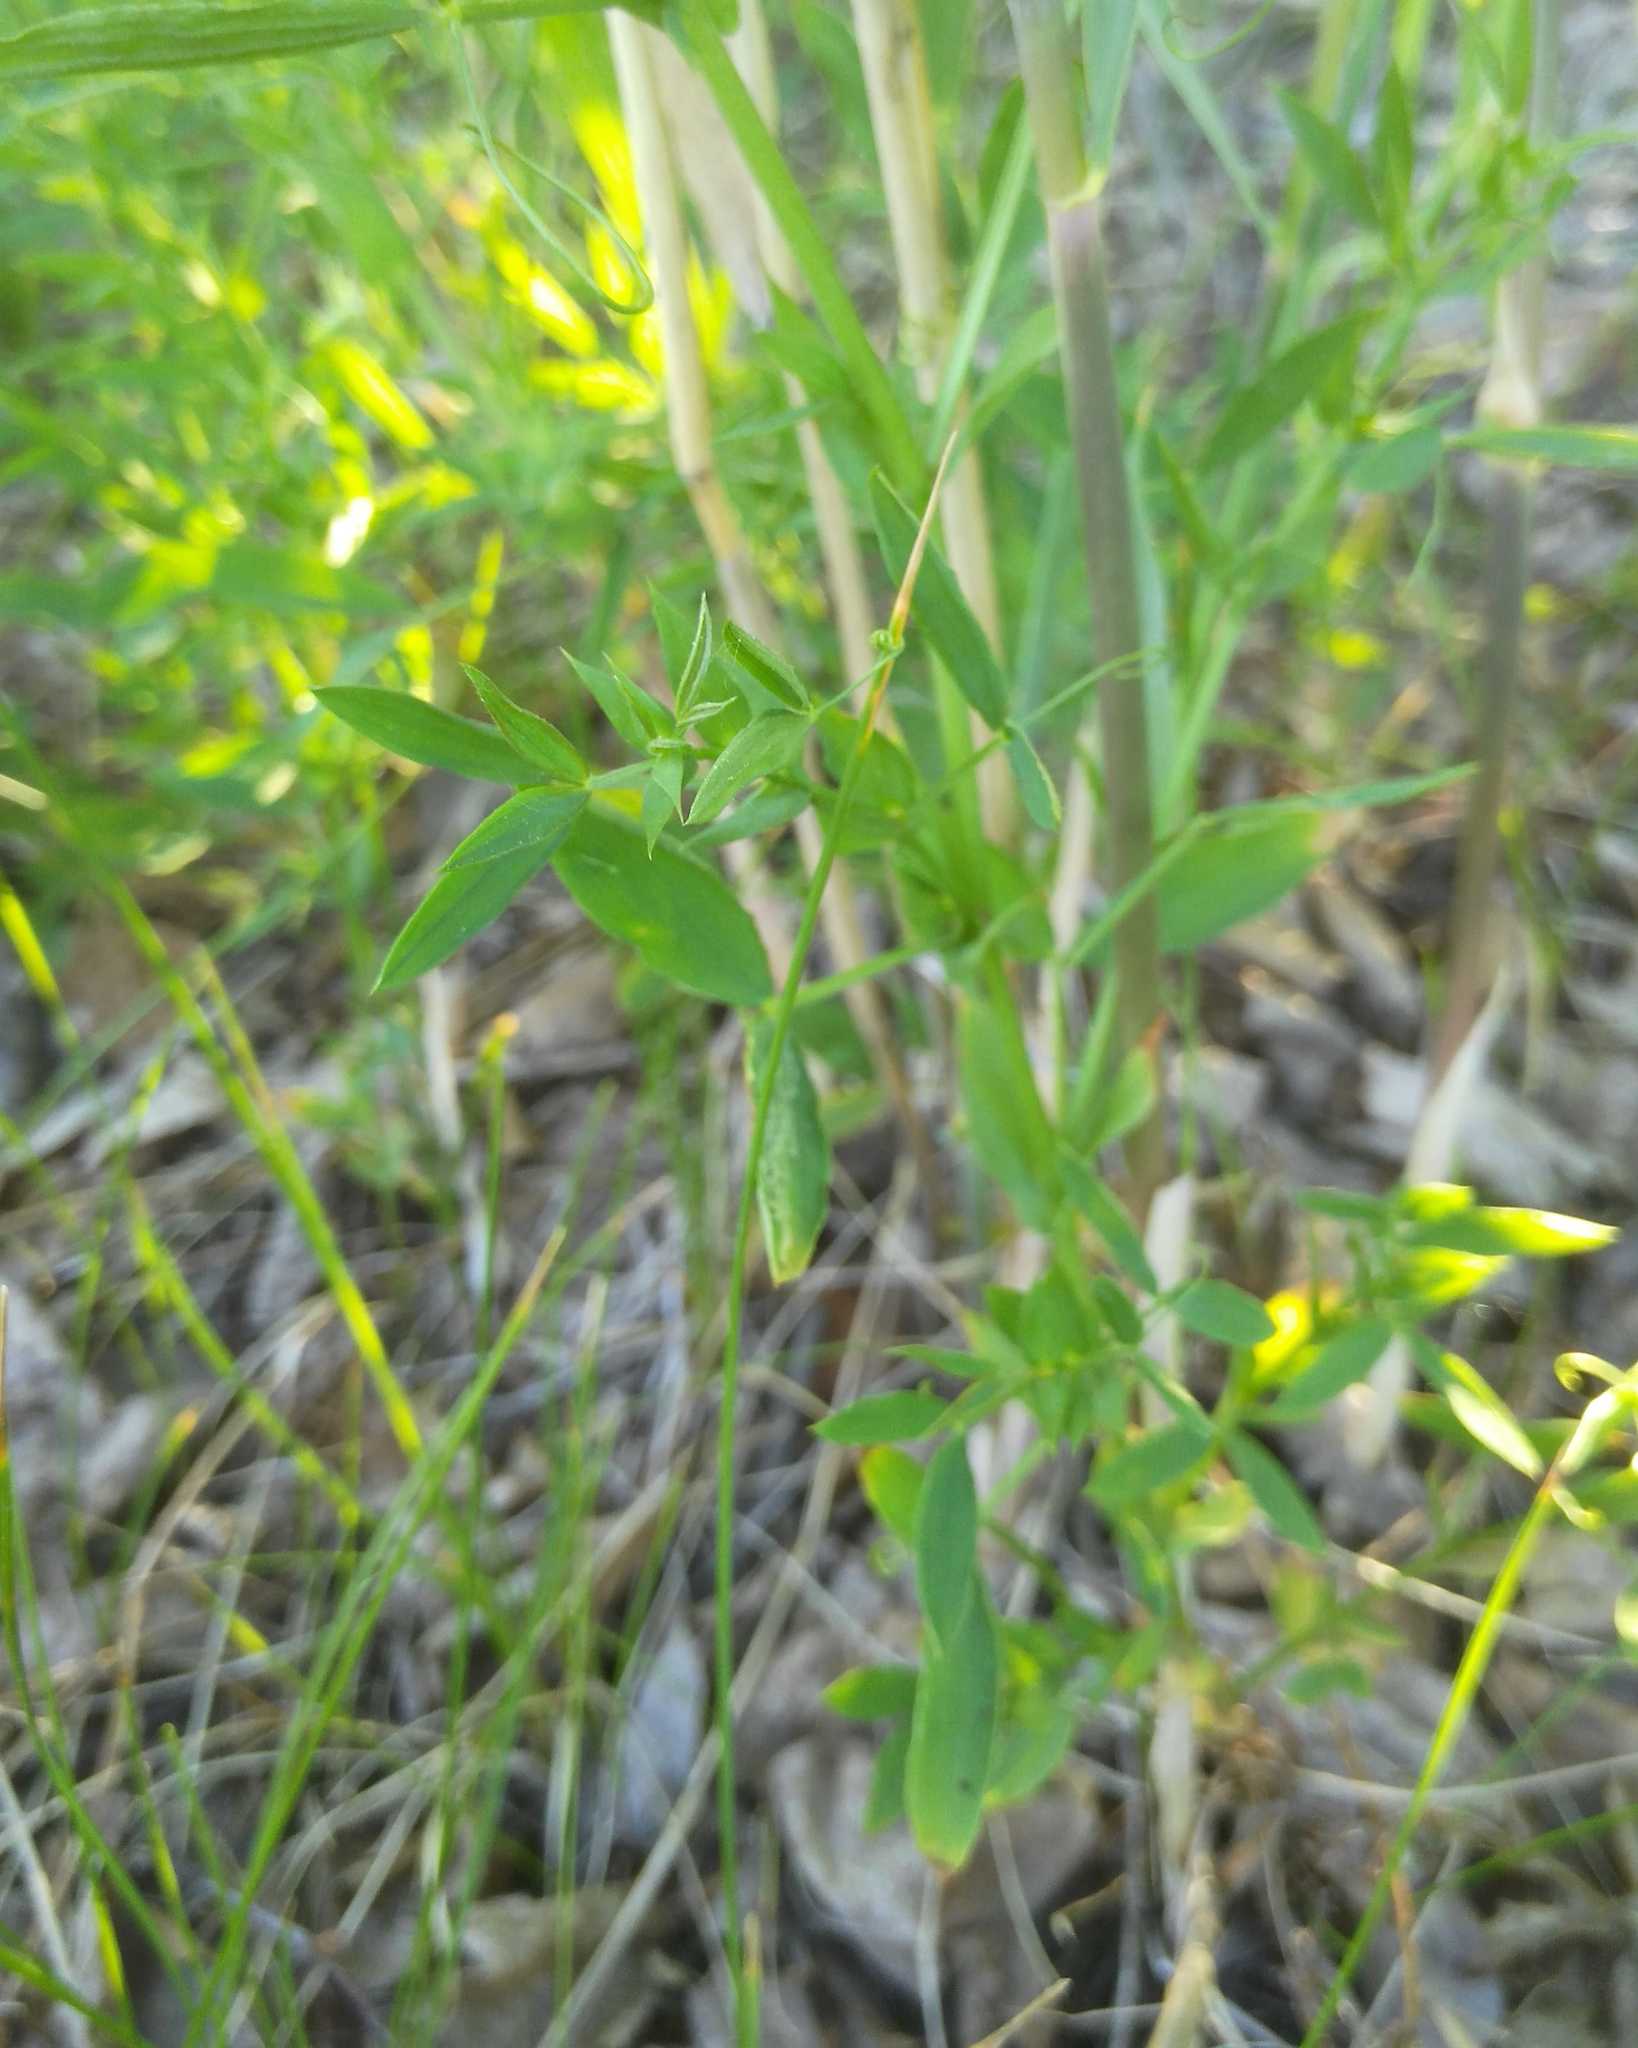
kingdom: Plantae
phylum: Tracheophyta
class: Magnoliopsida
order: Fabales
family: Fabaceae
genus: Lathyrus
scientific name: Lathyrus pratensis
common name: Meadow vetchling
